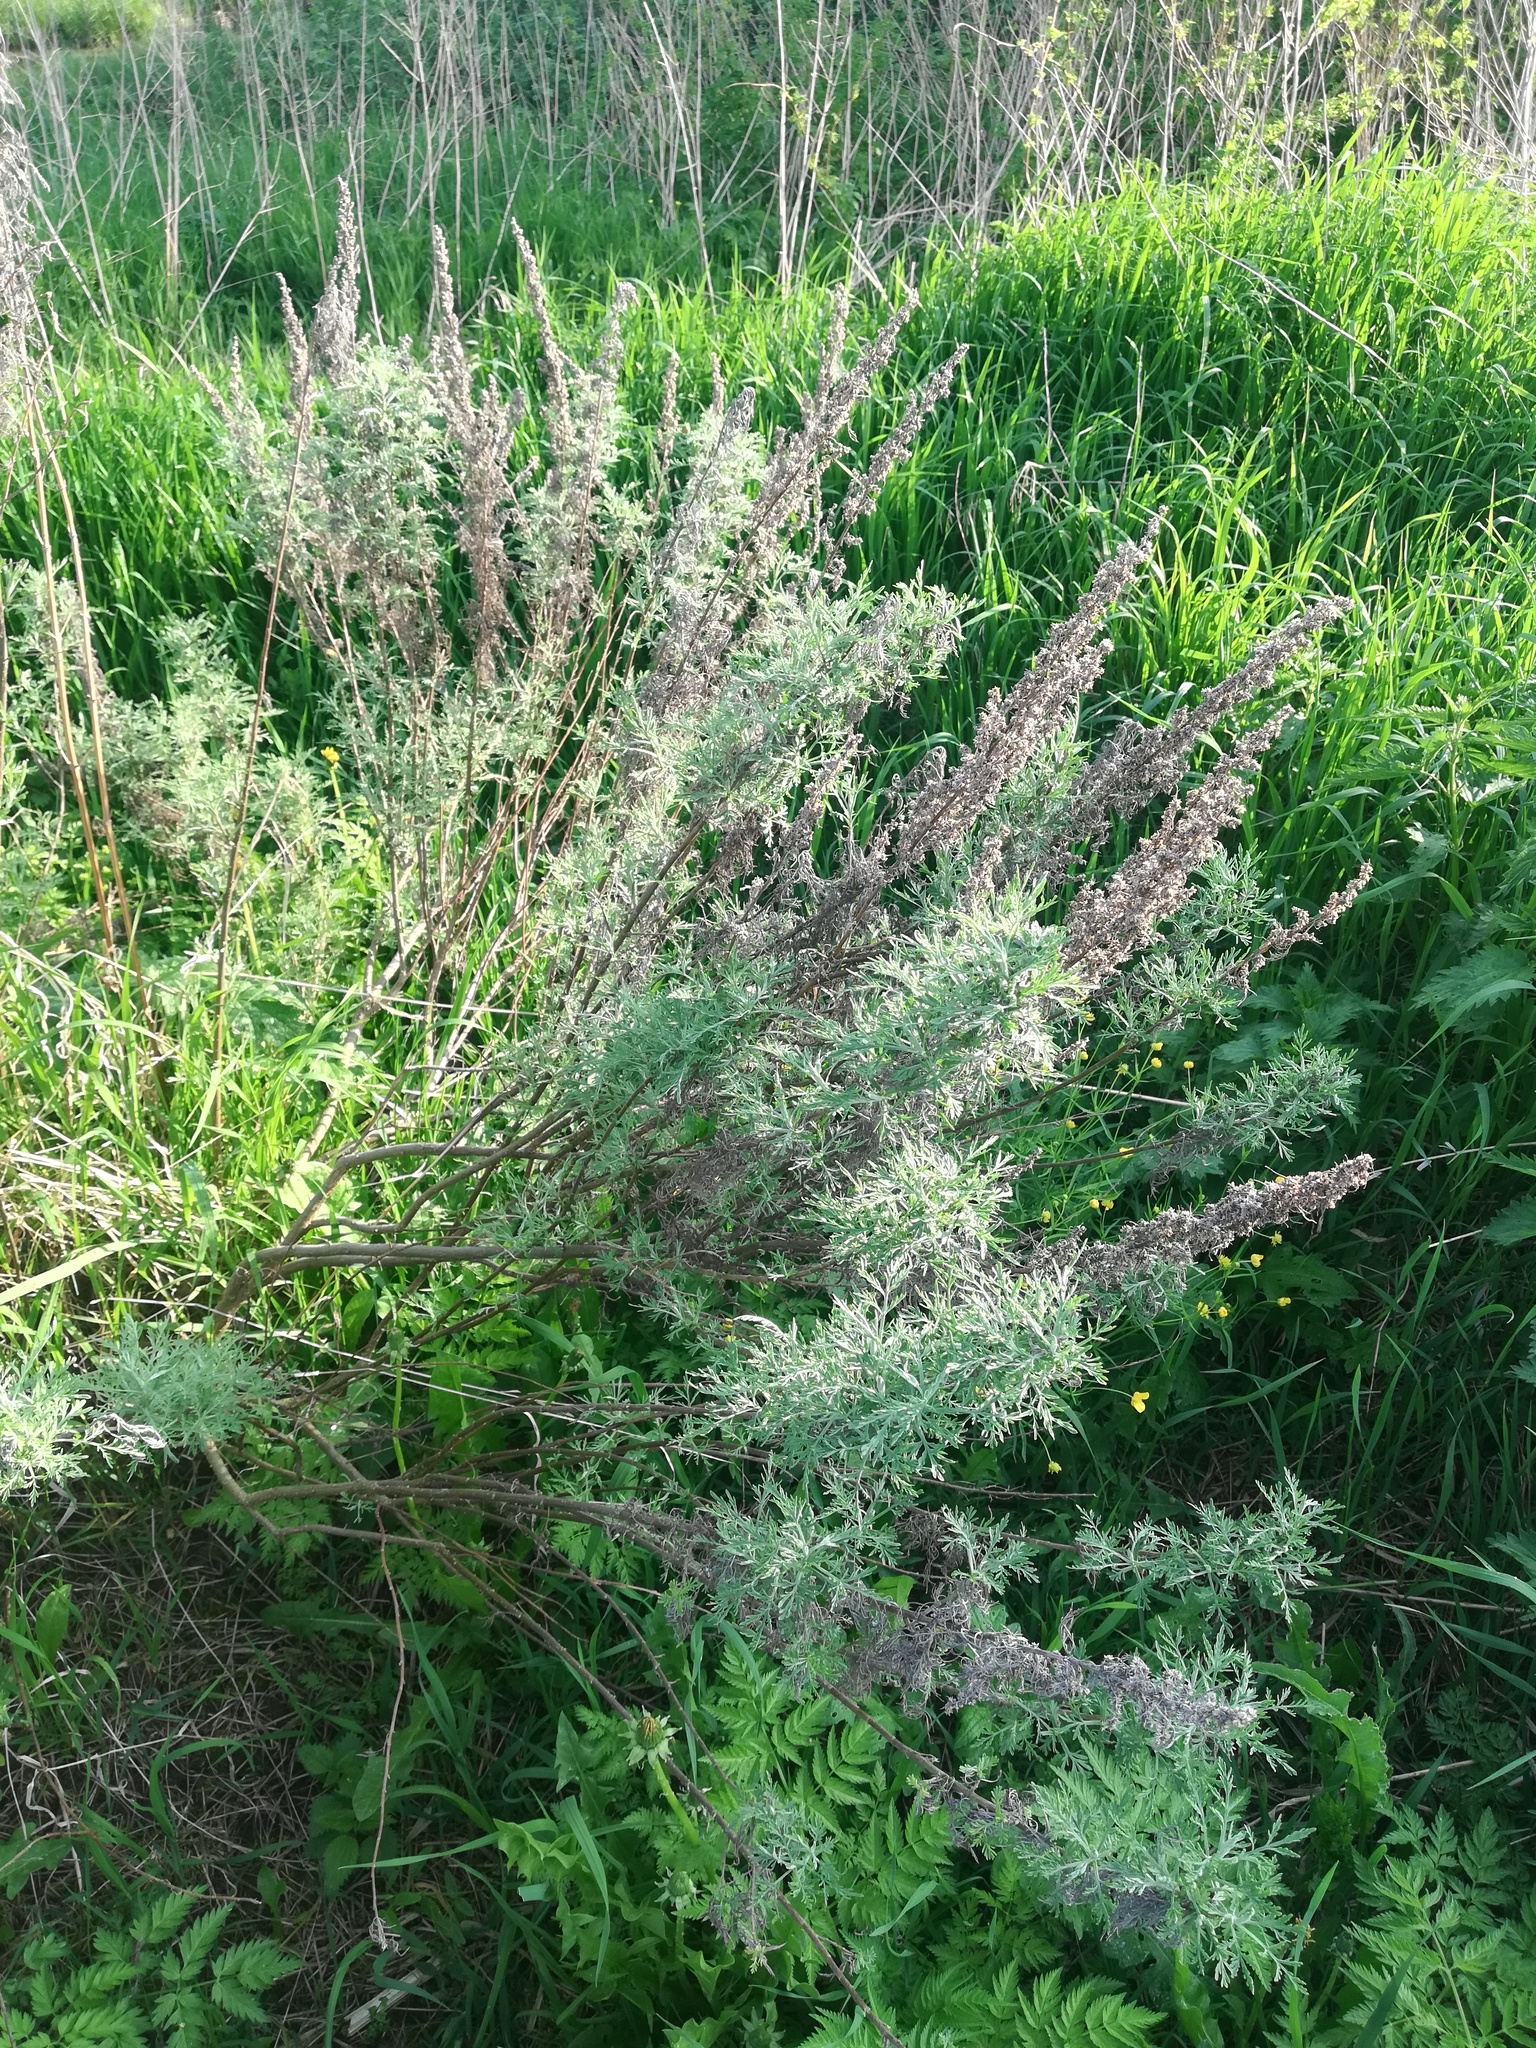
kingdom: Plantae
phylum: Tracheophyta
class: Magnoliopsida
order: Asterales
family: Asteraceae
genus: Artemisia
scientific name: Artemisia abrotanum
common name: Southernwood
